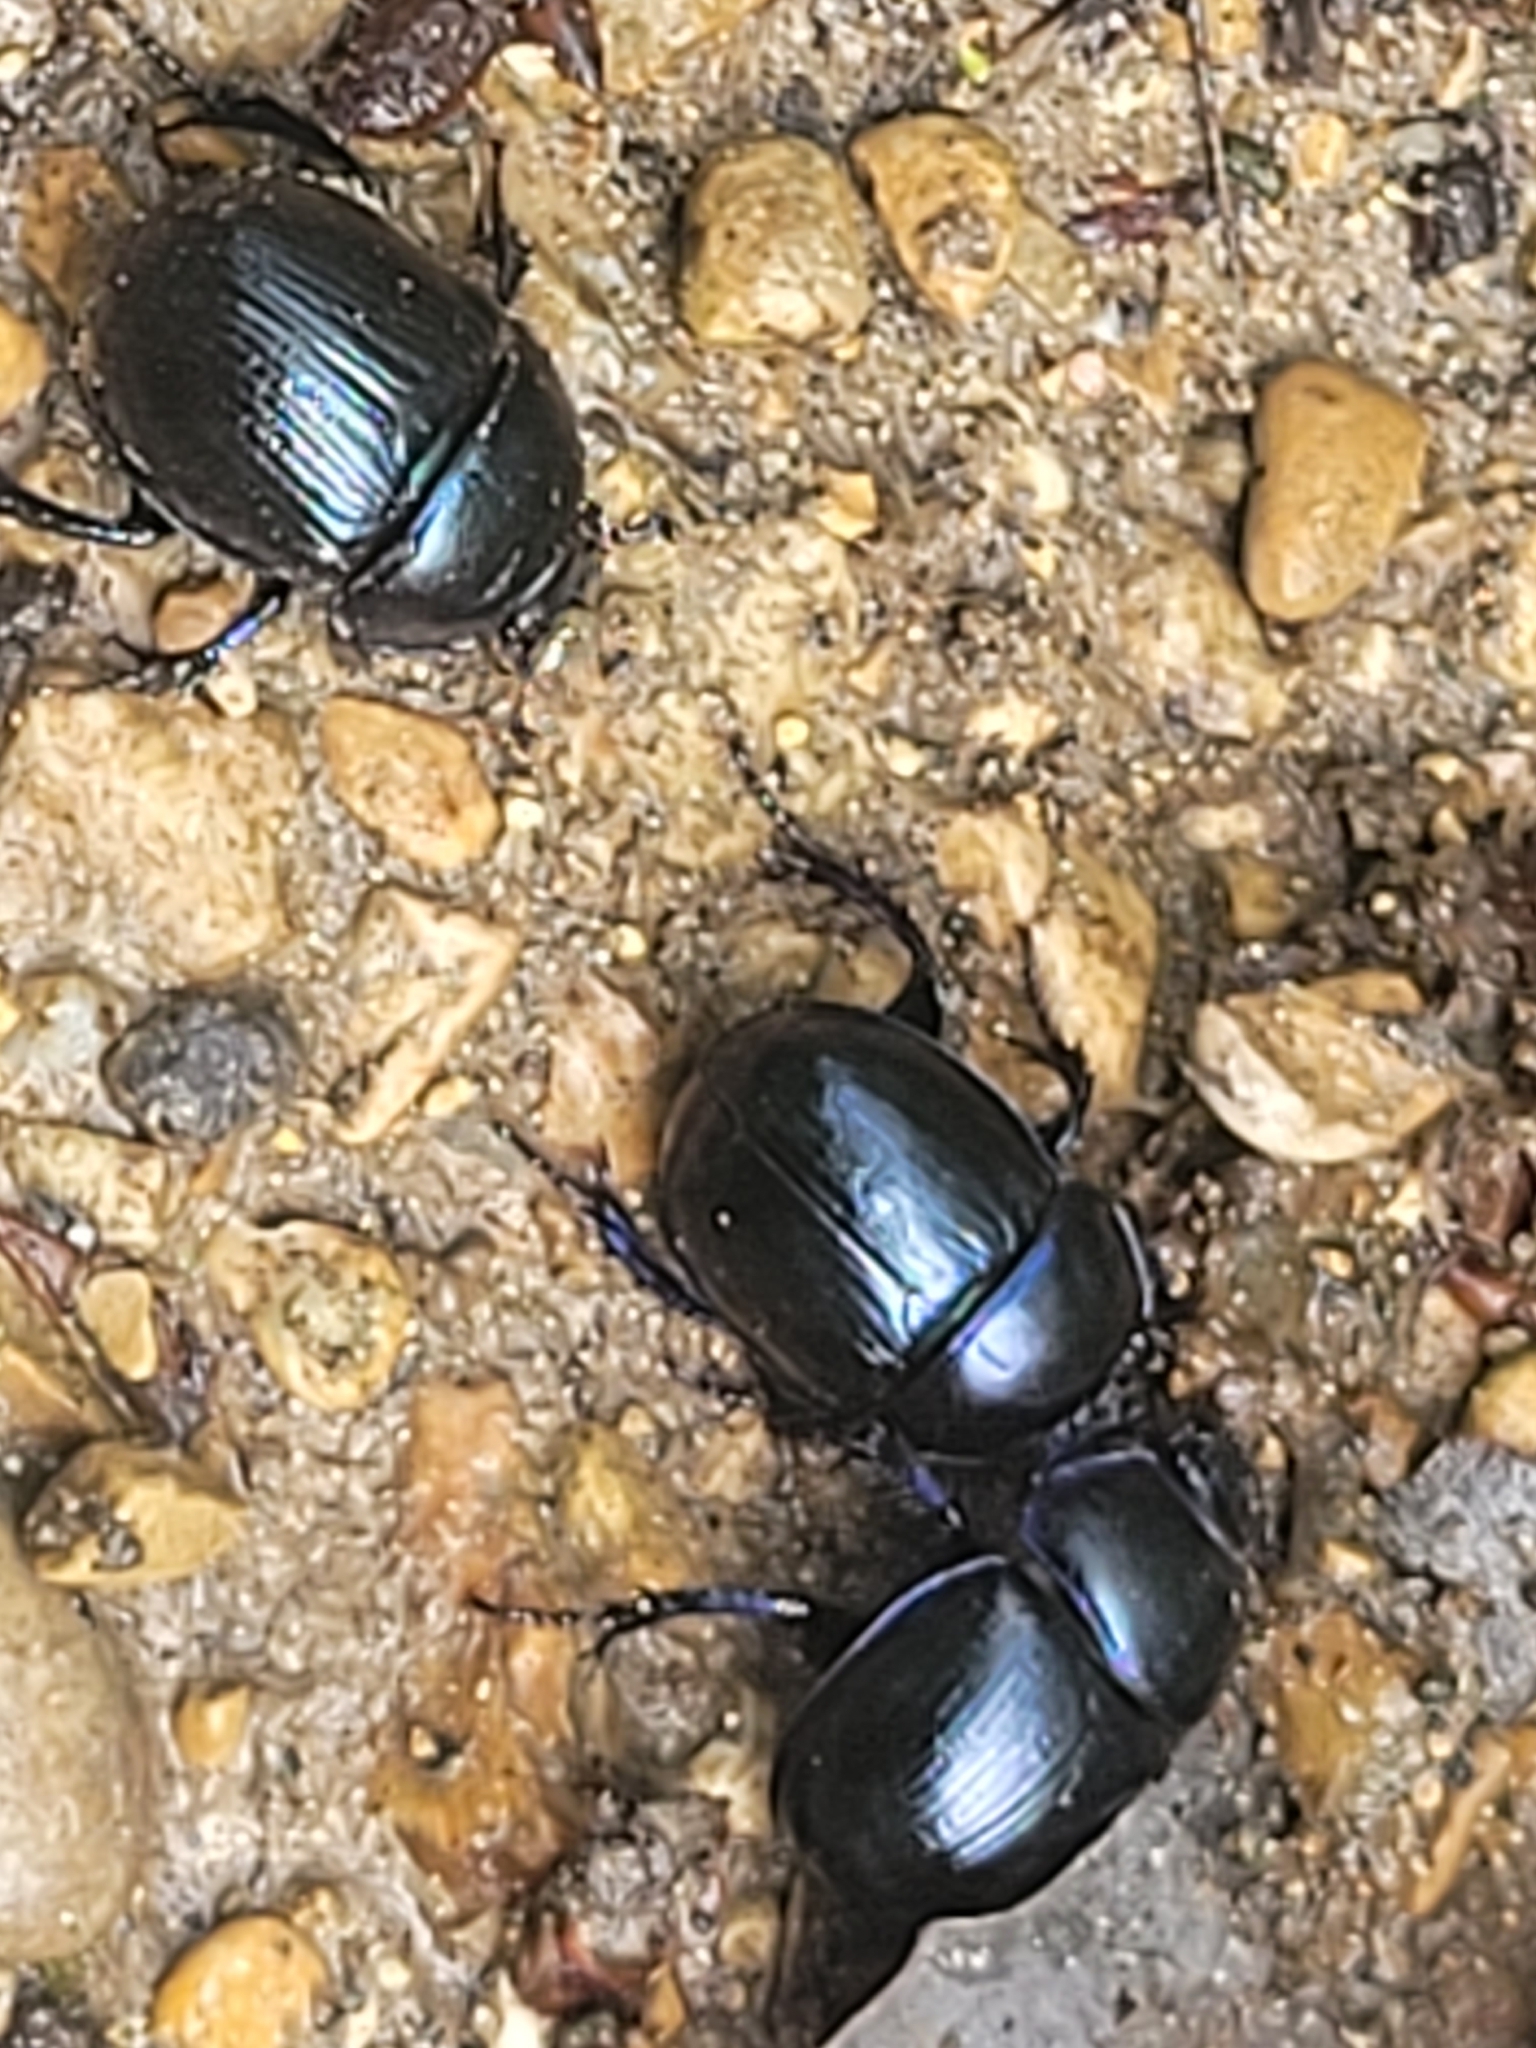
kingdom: Animalia
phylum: Arthropoda
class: Insecta
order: Coleoptera
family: Geotrupidae
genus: Anoplotrupes
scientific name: Anoplotrupes stercorosus
